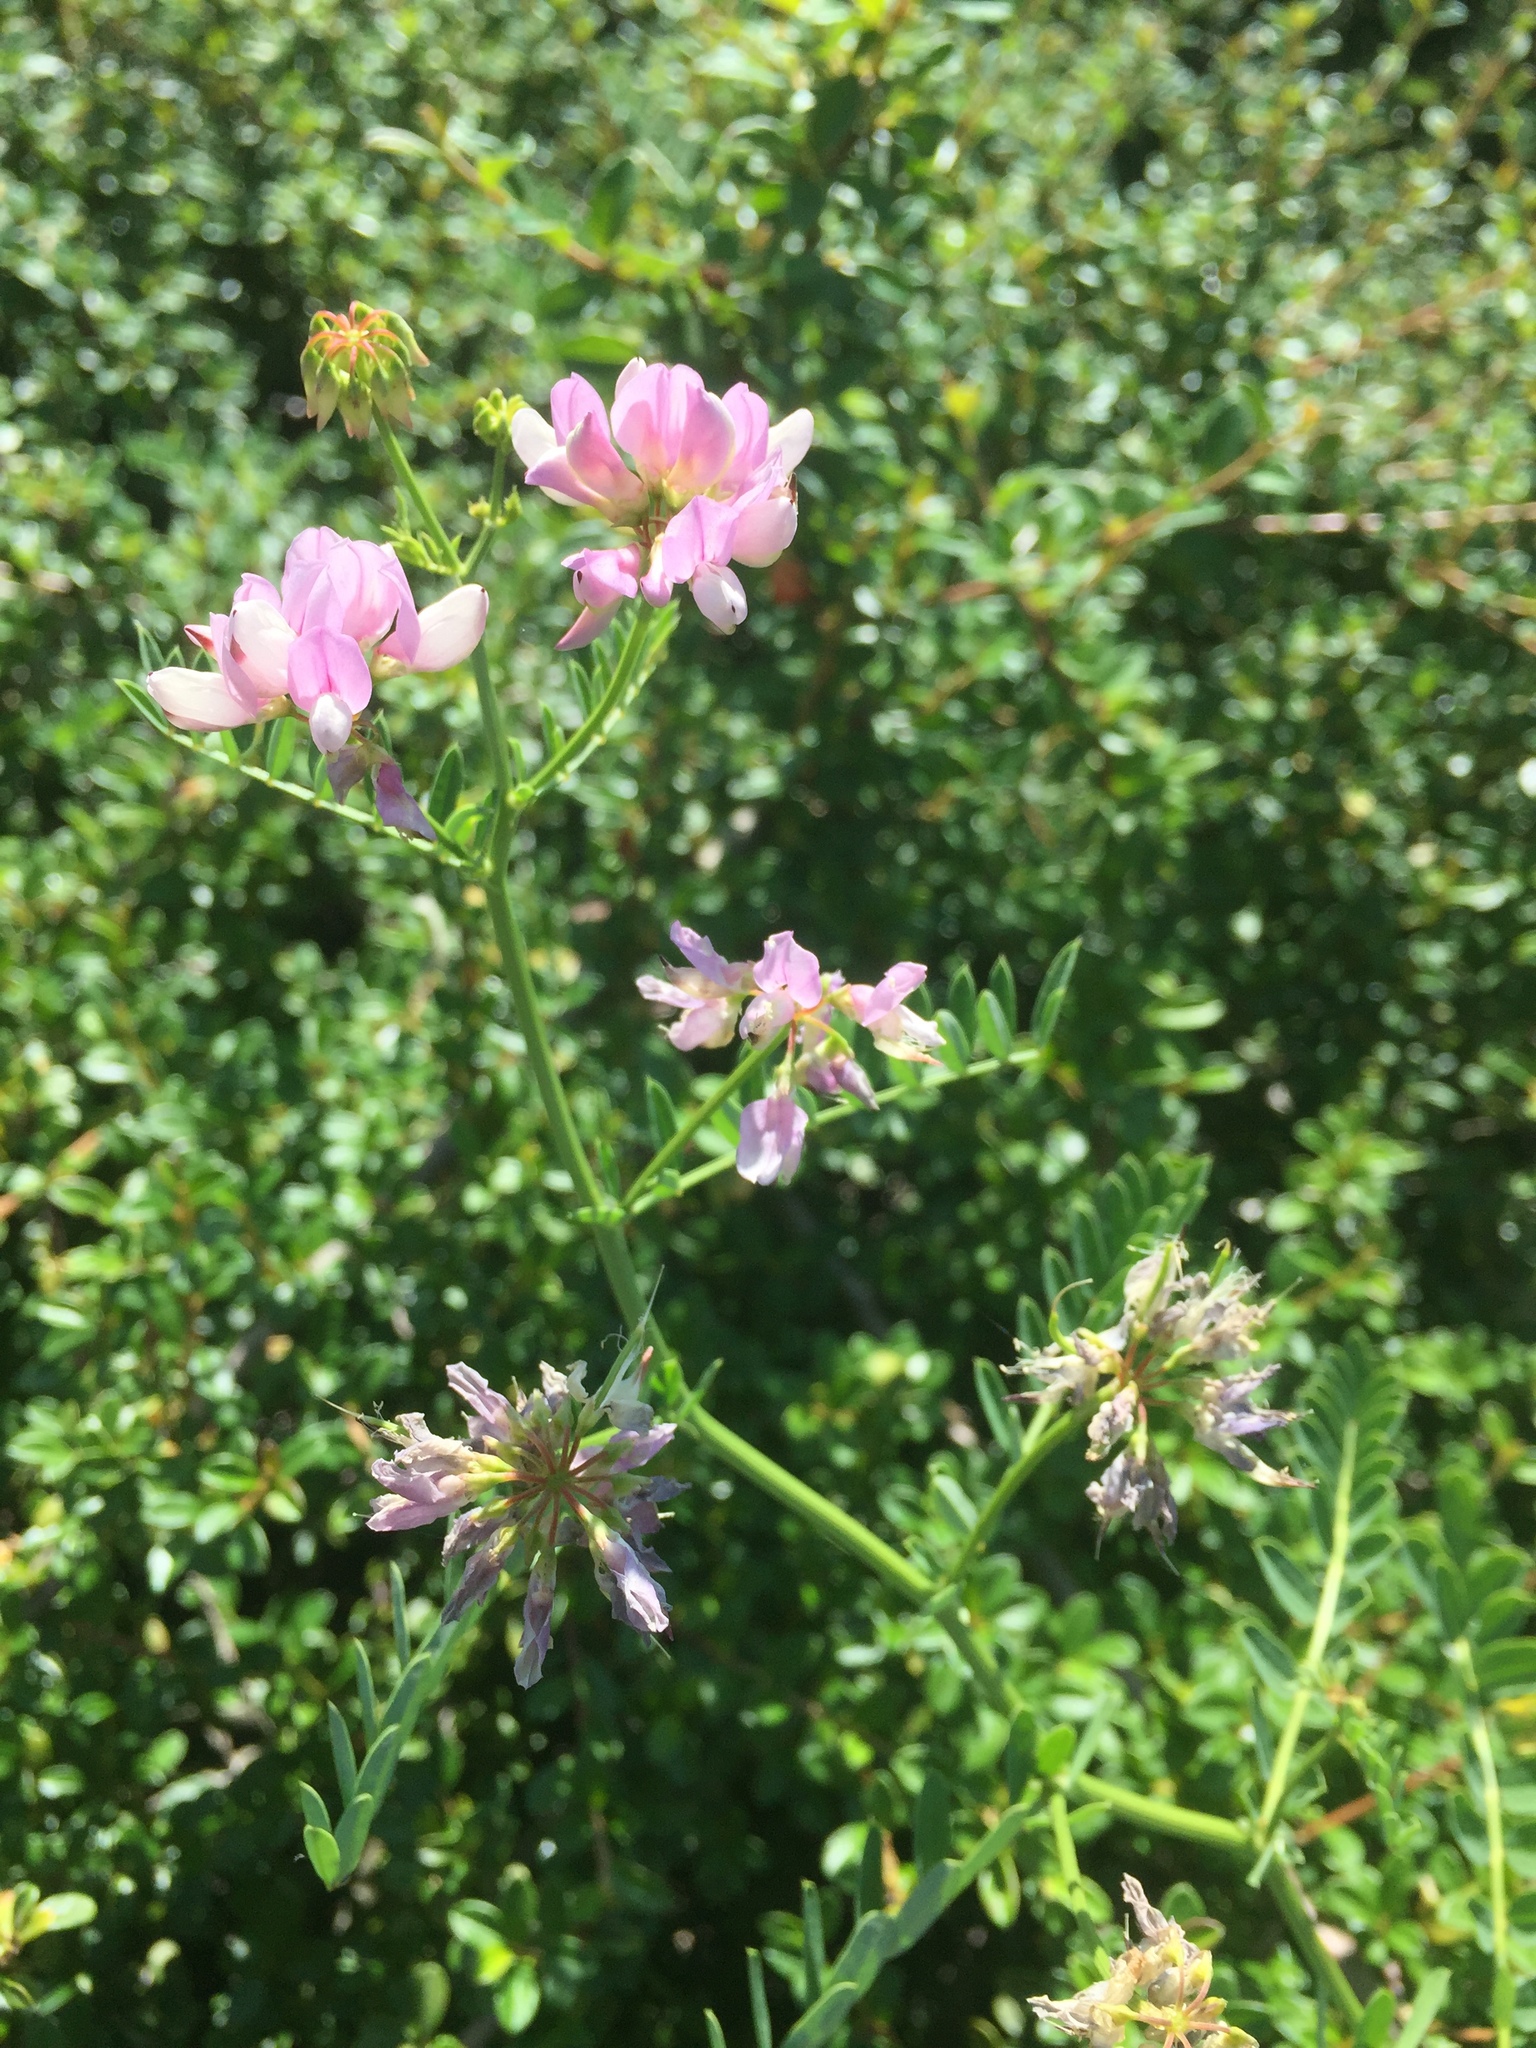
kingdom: Plantae
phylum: Tracheophyta
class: Magnoliopsida
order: Fabales
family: Fabaceae
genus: Coronilla
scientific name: Coronilla varia
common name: Crownvetch
